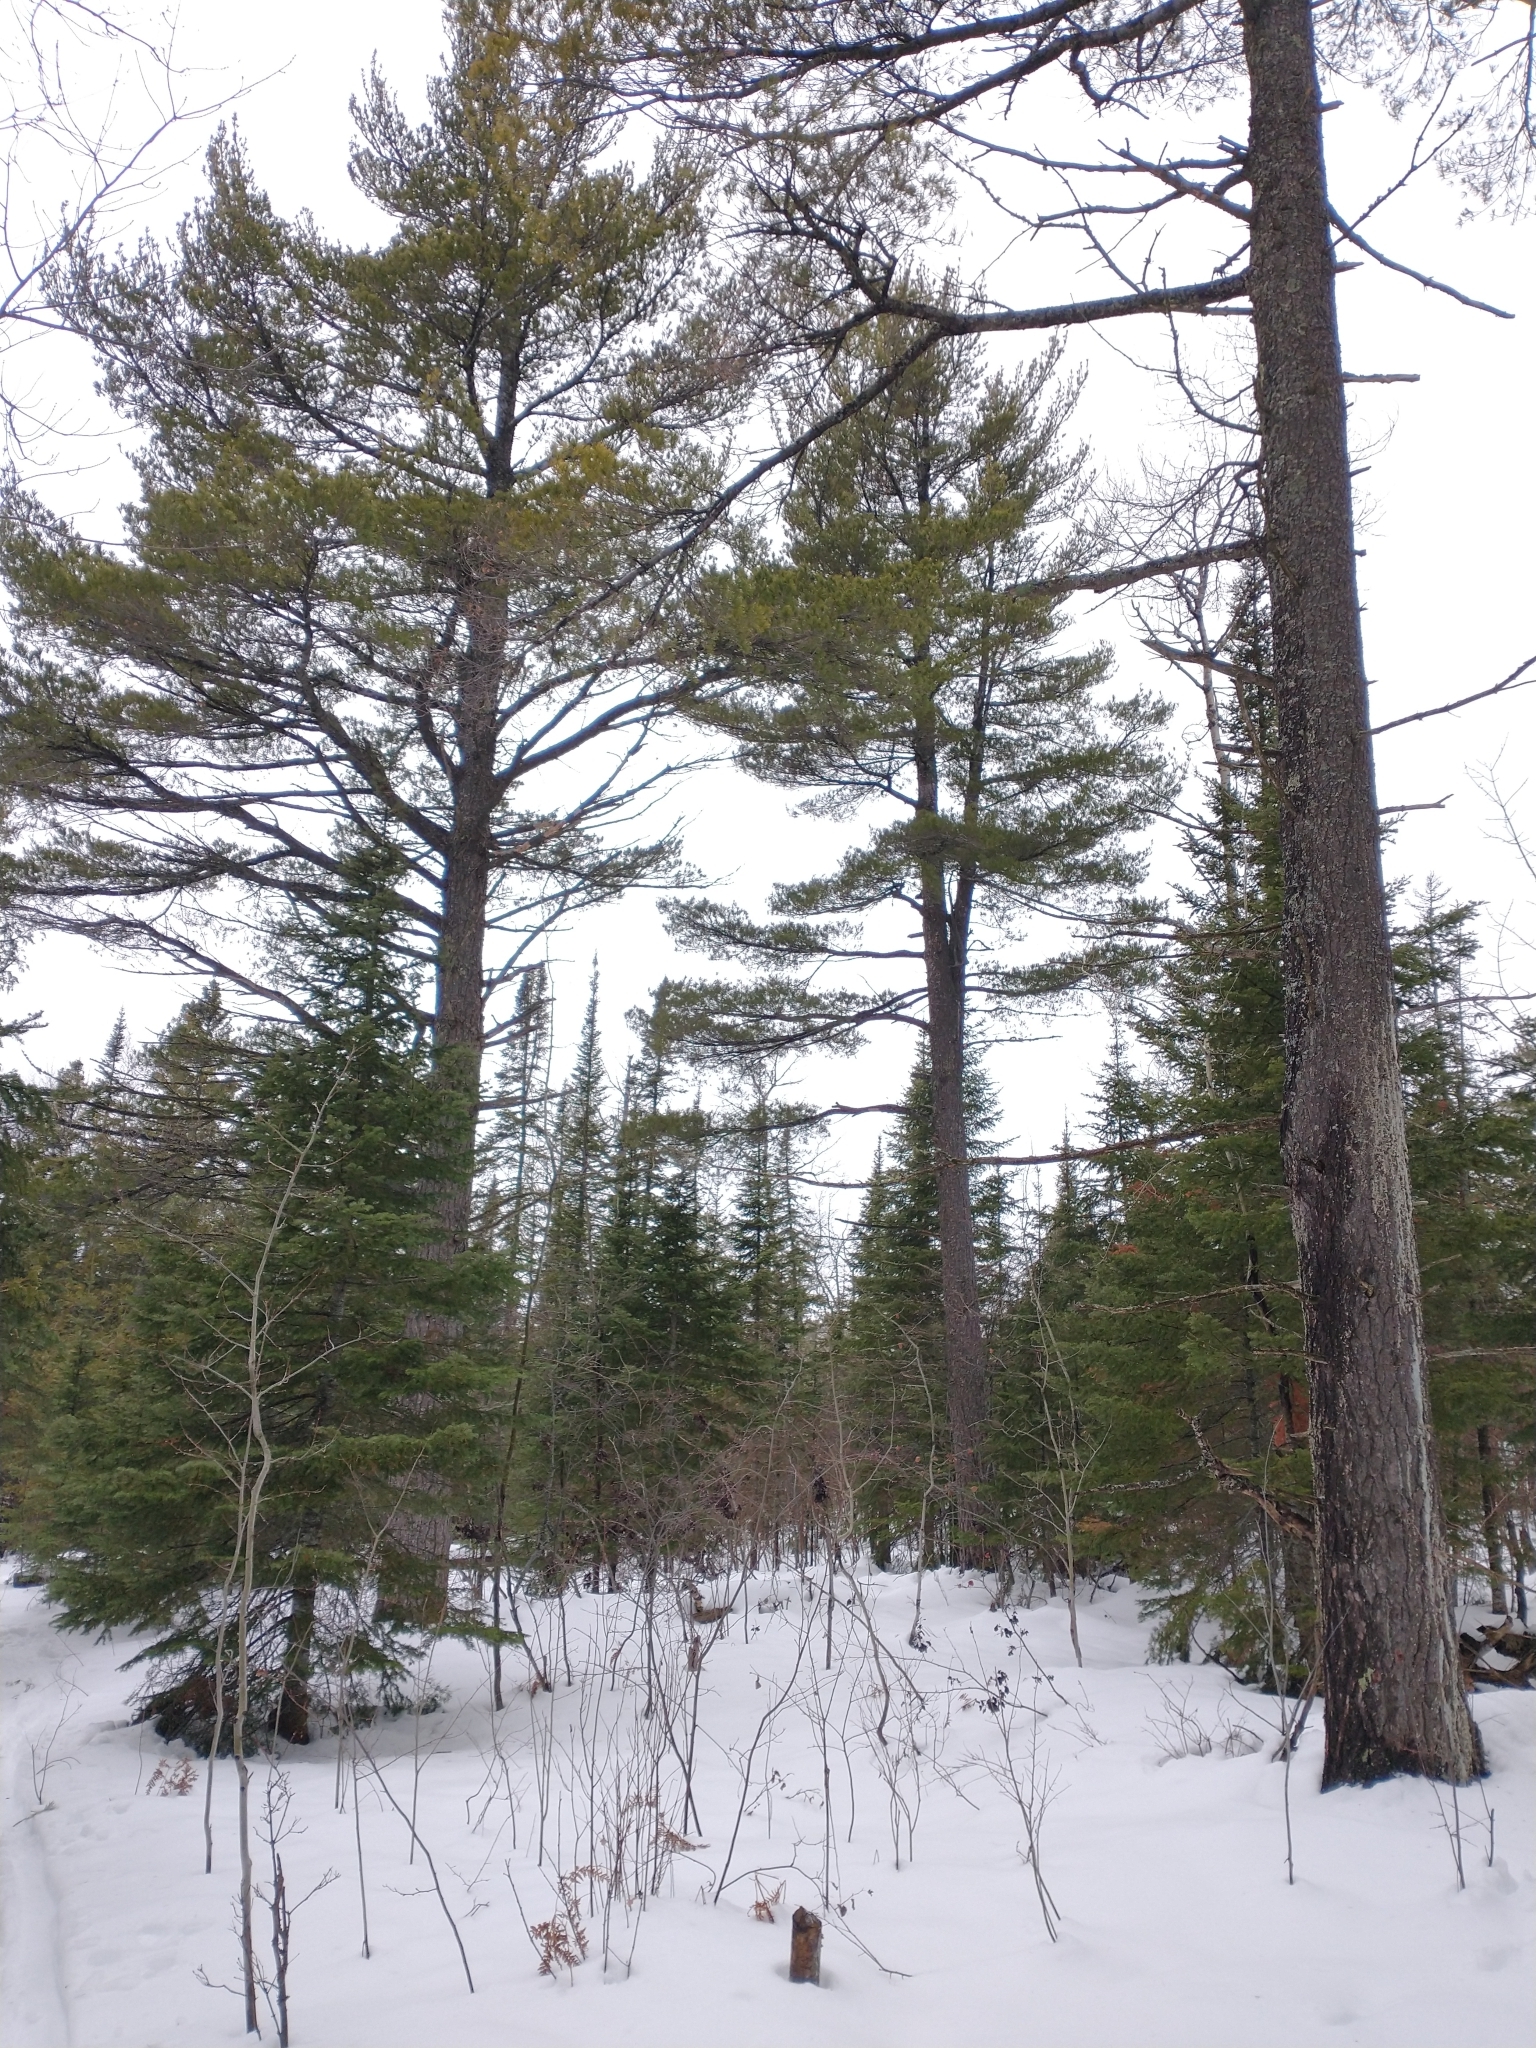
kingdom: Plantae
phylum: Tracheophyta
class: Pinopsida
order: Pinales
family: Pinaceae
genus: Pinus
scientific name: Pinus strobus
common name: Weymouth pine
